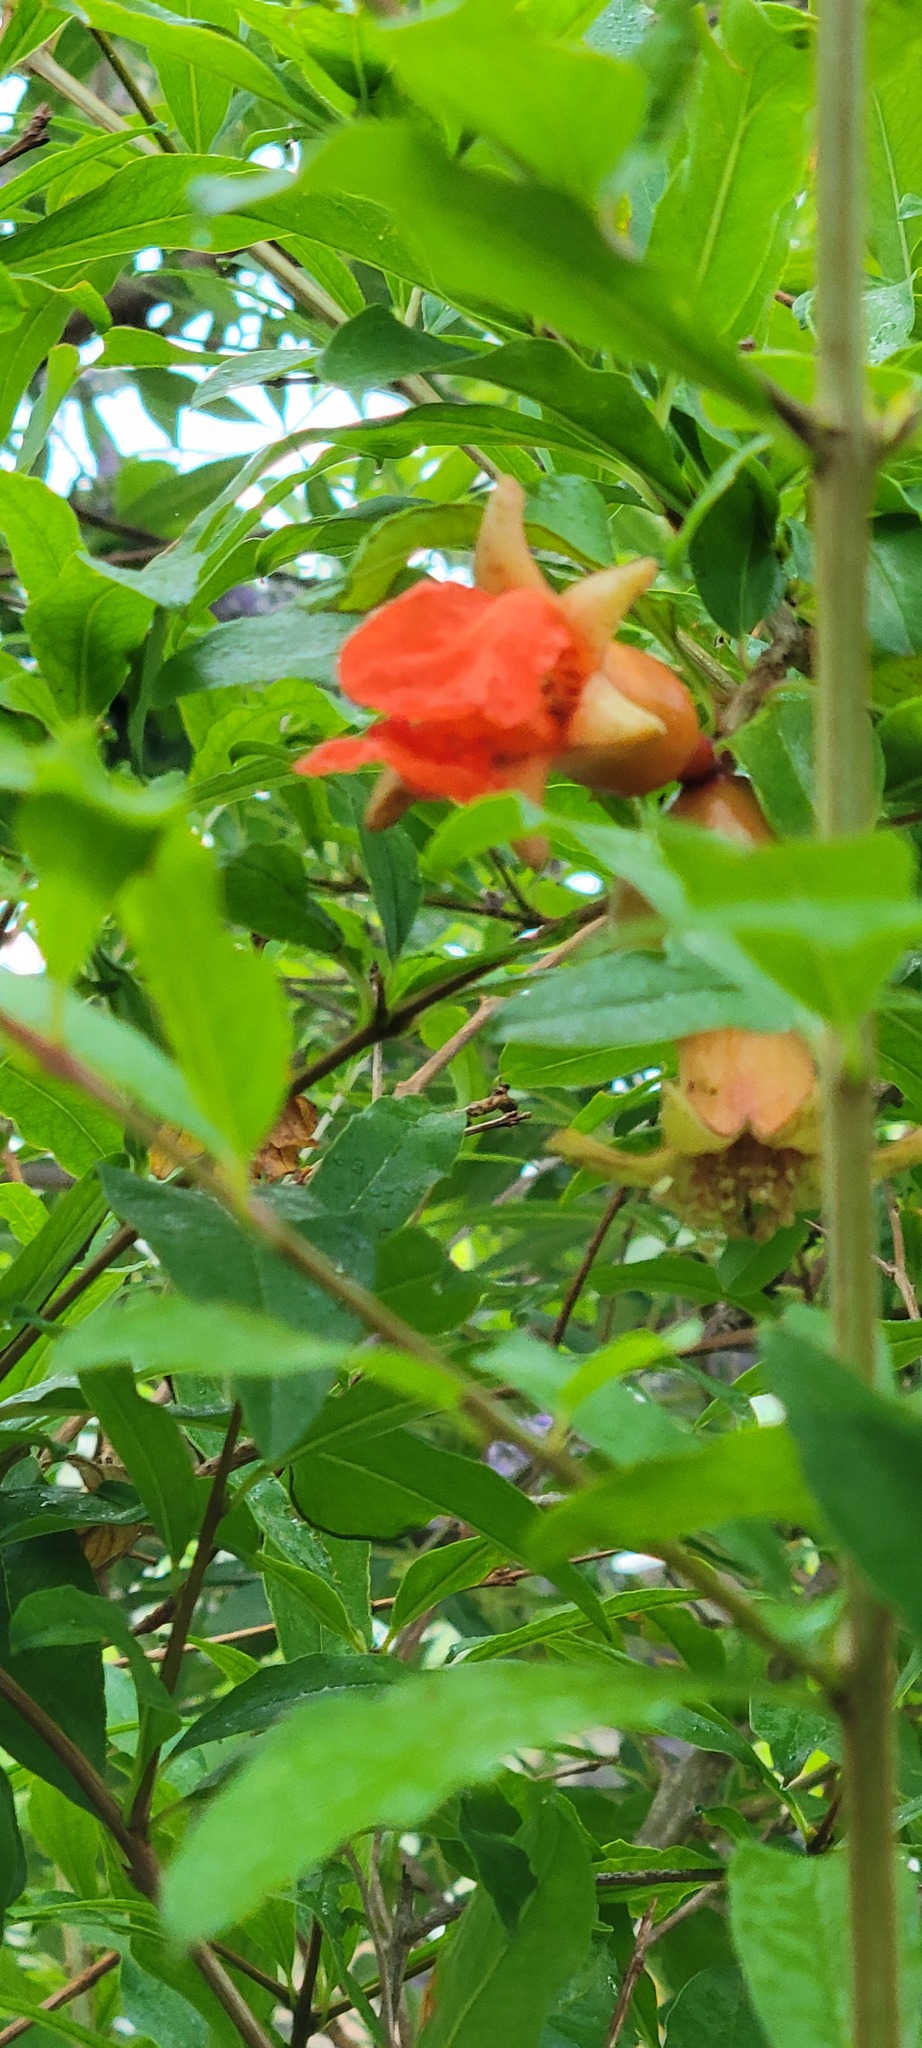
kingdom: Plantae
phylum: Tracheophyta
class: Magnoliopsida
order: Myrtales
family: Lythraceae
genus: Punica
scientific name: Punica granatum
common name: Pomegranate
